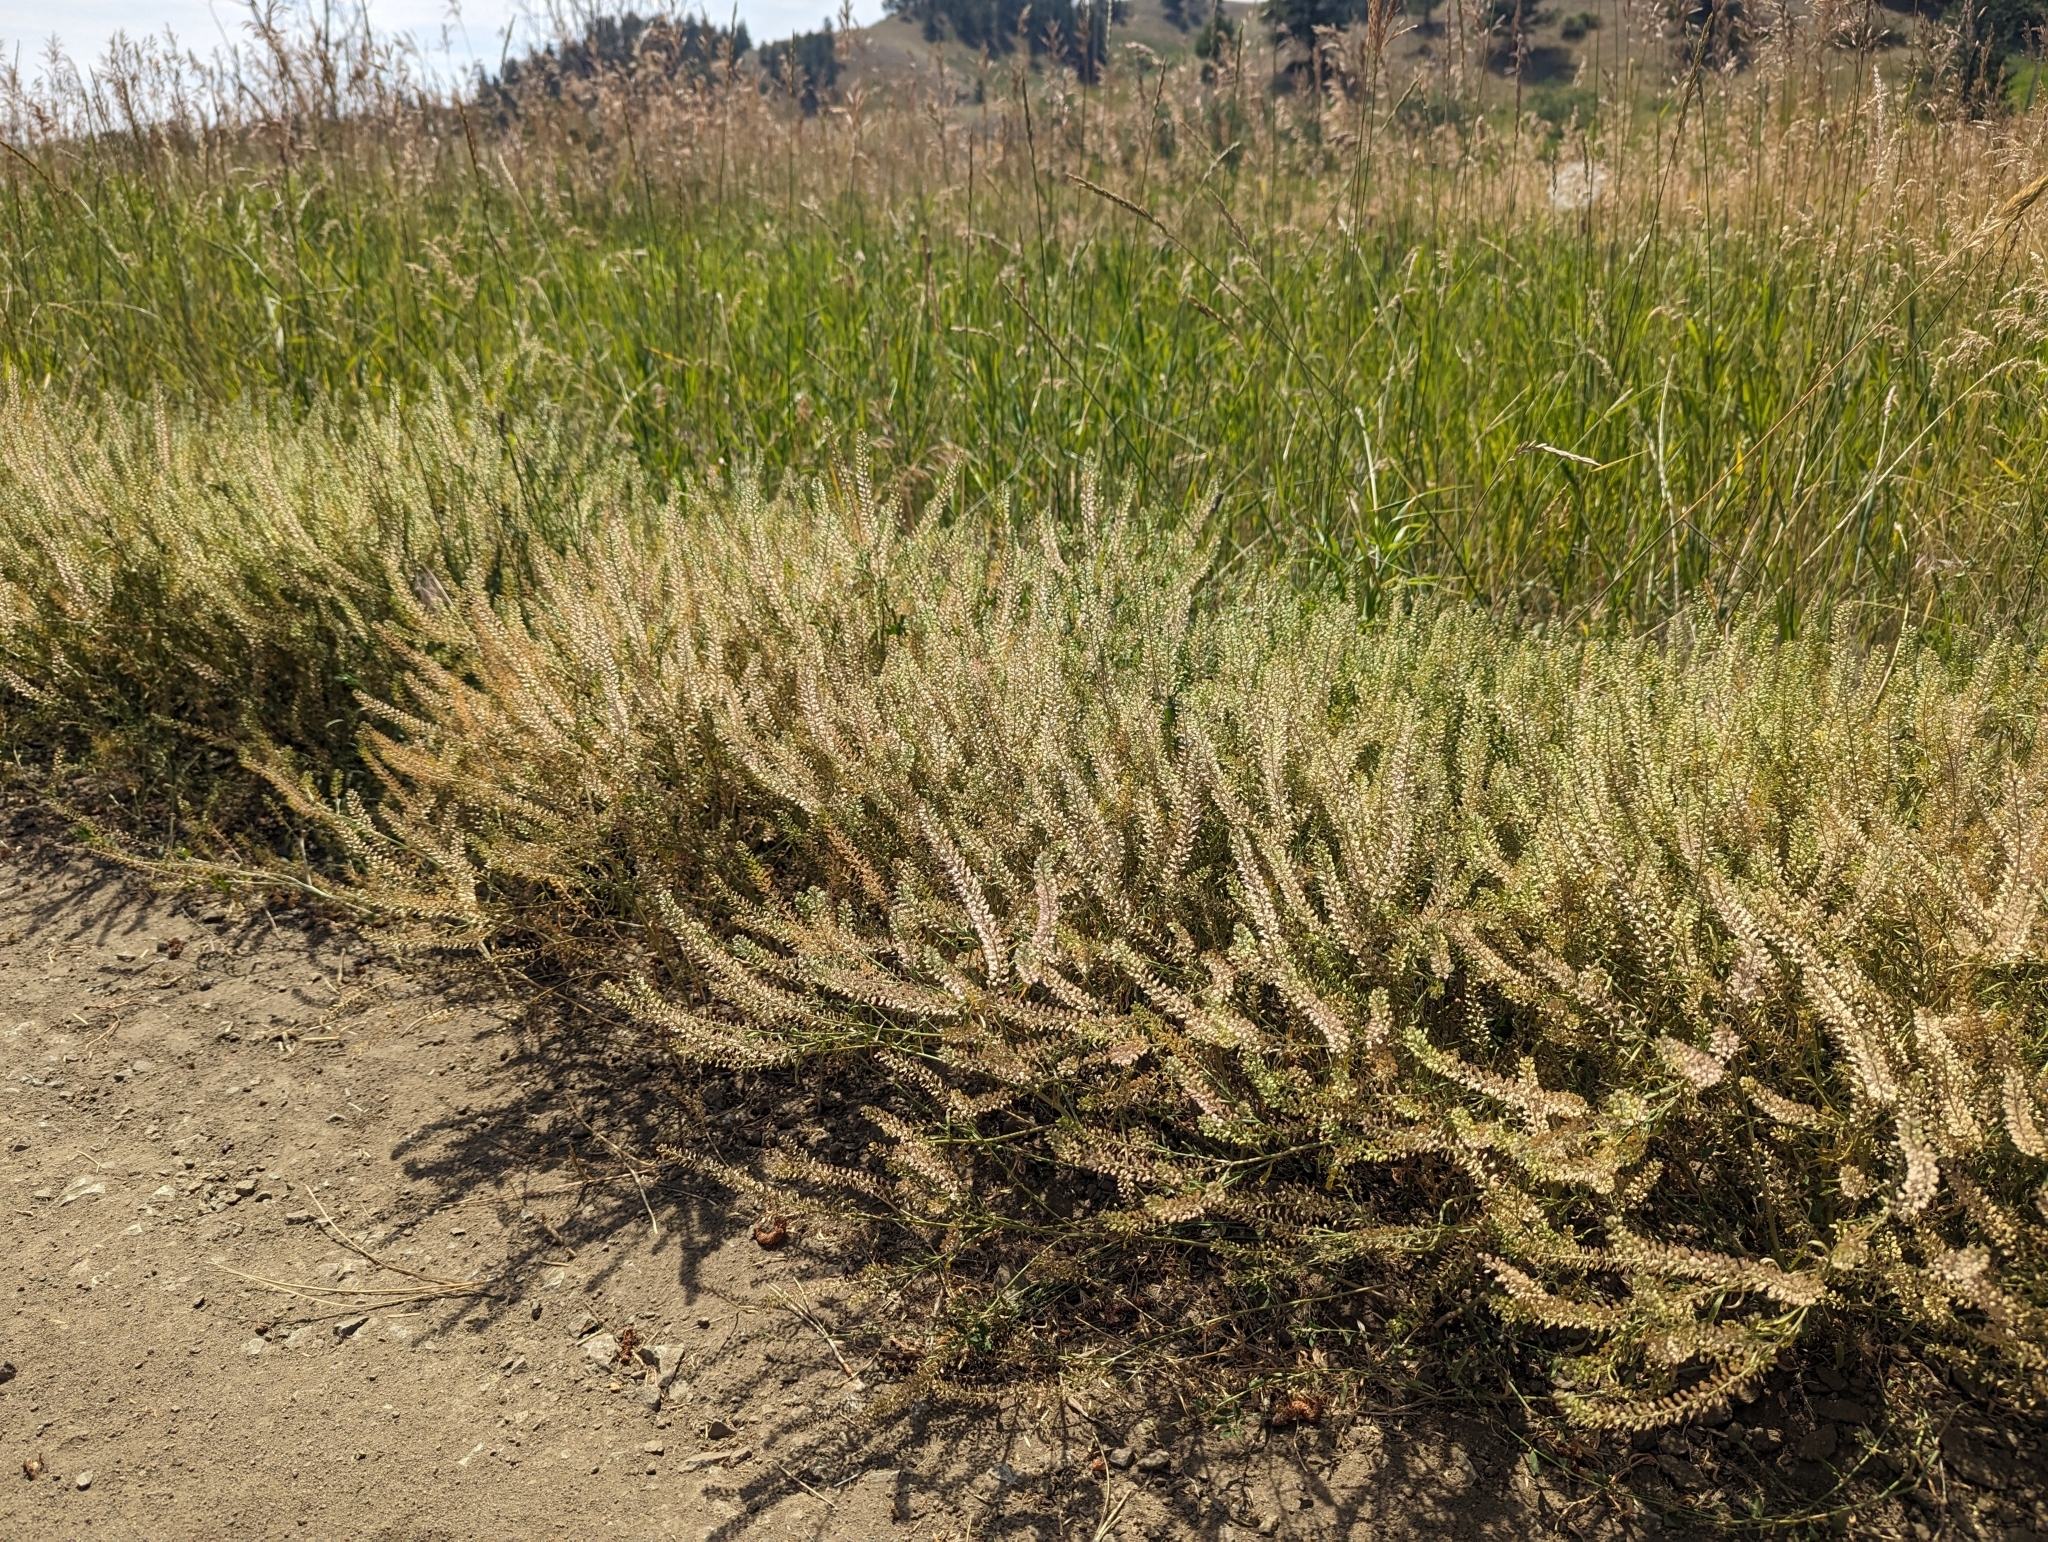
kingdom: Plantae
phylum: Tracheophyta
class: Magnoliopsida
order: Brassicales
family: Brassicaceae
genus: Lepidium
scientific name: Lepidium densiflorum
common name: Miner's pepperwort
